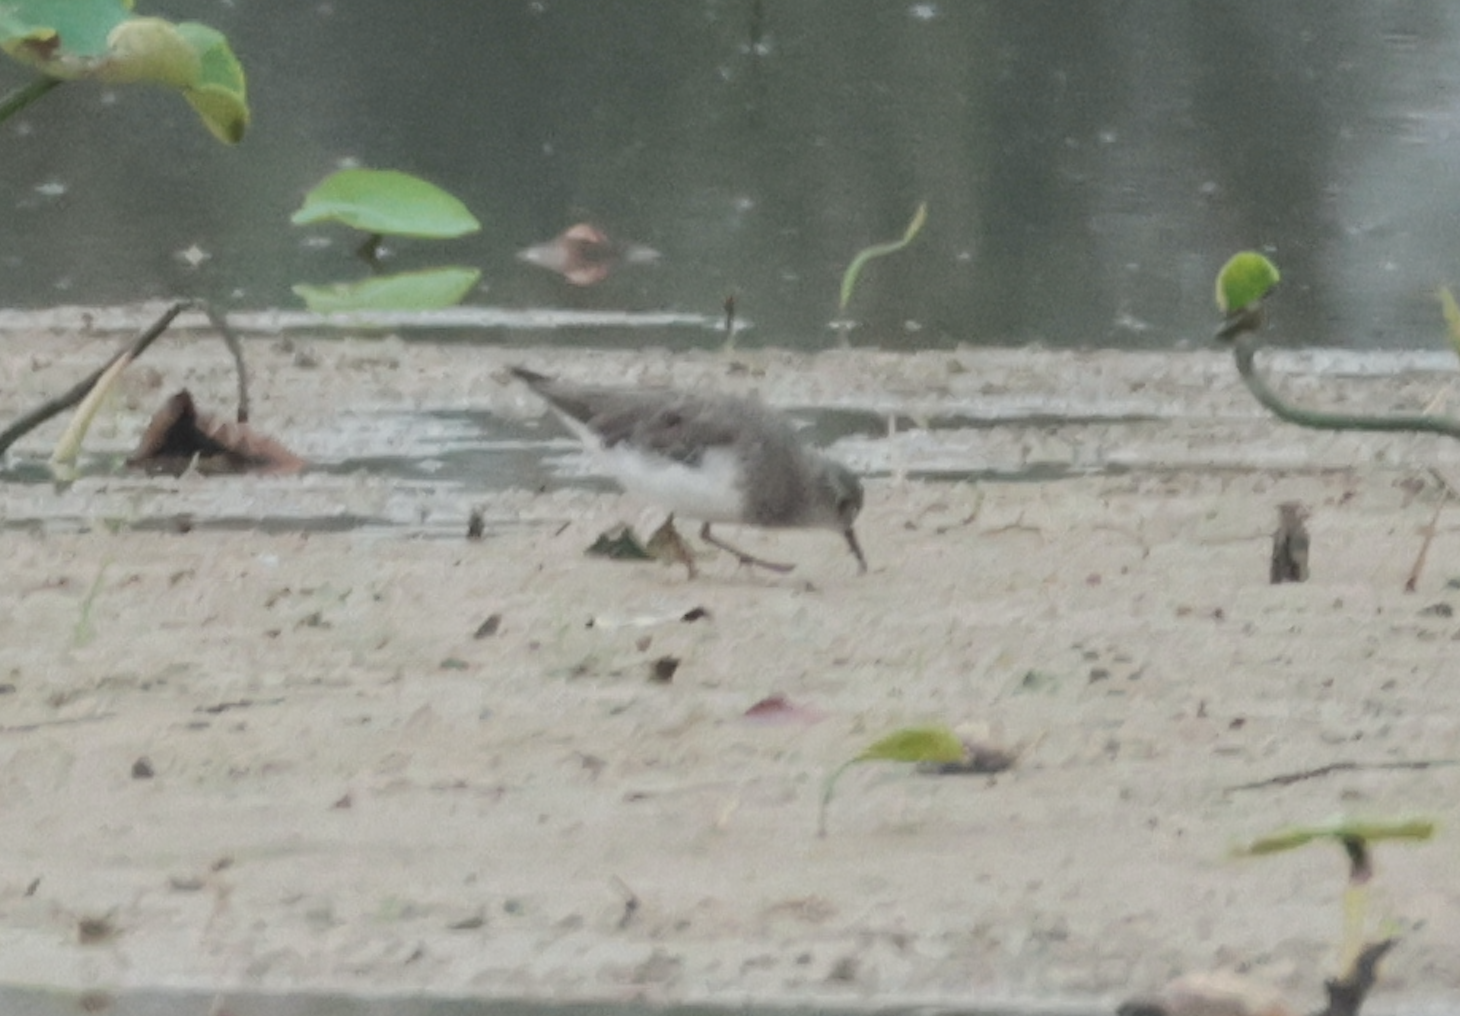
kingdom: Animalia
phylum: Chordata
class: Aves
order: Charadriiformes
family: Scolopacidae
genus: Calidris
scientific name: Calidris temminckii
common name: Temminck's stint
